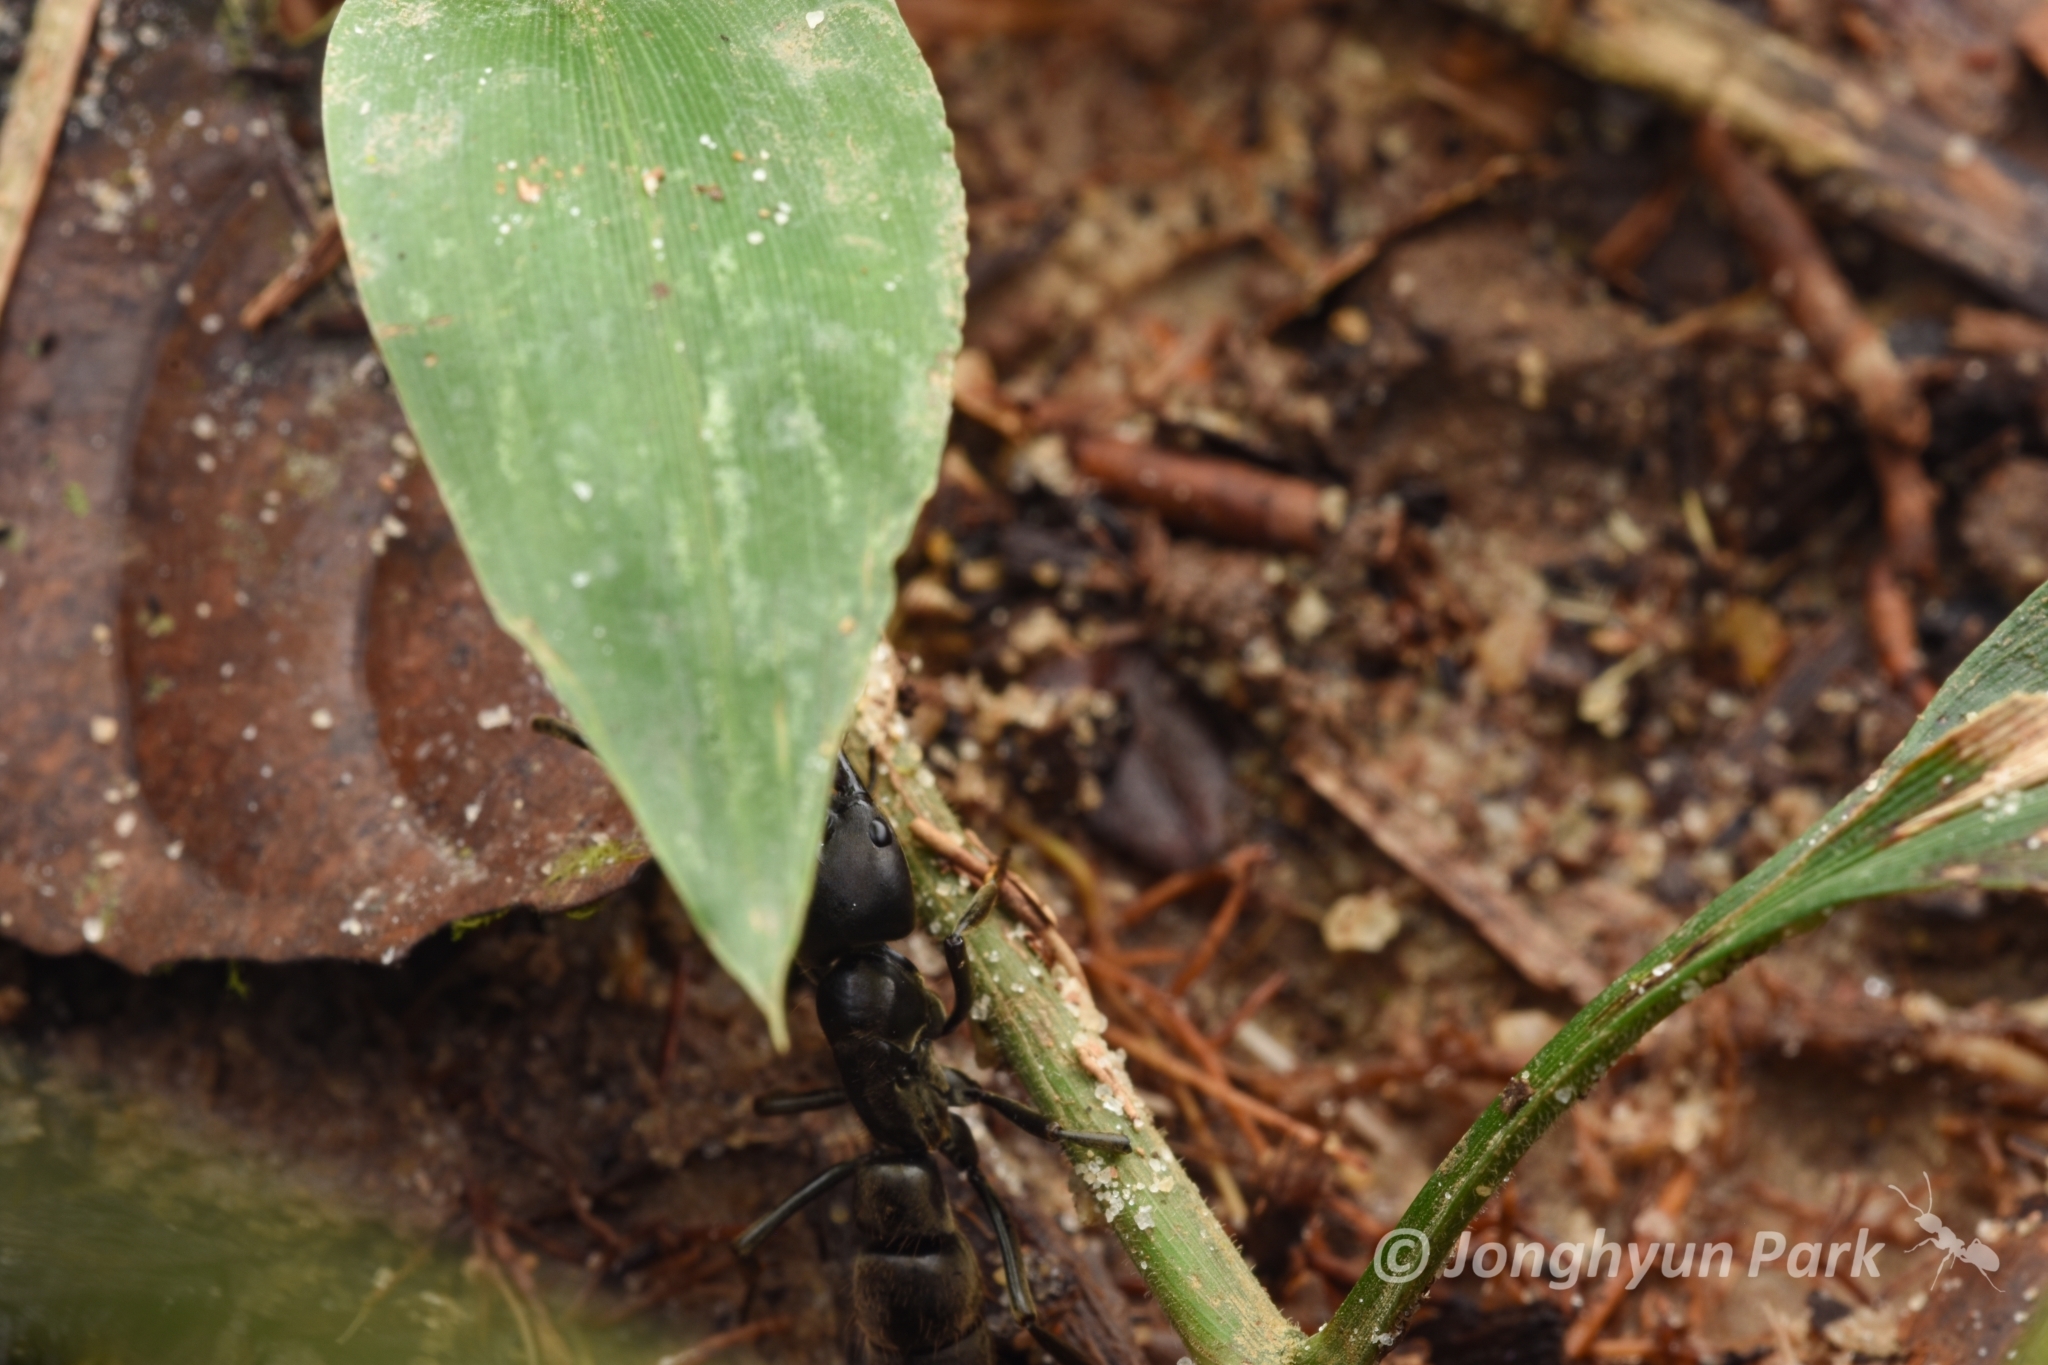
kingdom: Animalia
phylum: Arthropoda
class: Insecta
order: Hymenoptera
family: Formicidae
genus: Pachycondyla
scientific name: Pachycondyla crassinoda
